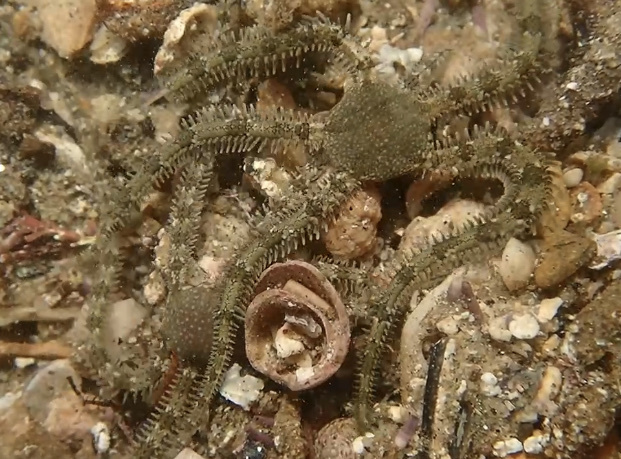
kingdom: Animalia
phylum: Echinodermata
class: Ophiuroidea
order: Amphilepidida
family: Ophionereididae
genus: Ophionereis
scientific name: Ophionereis annulata
